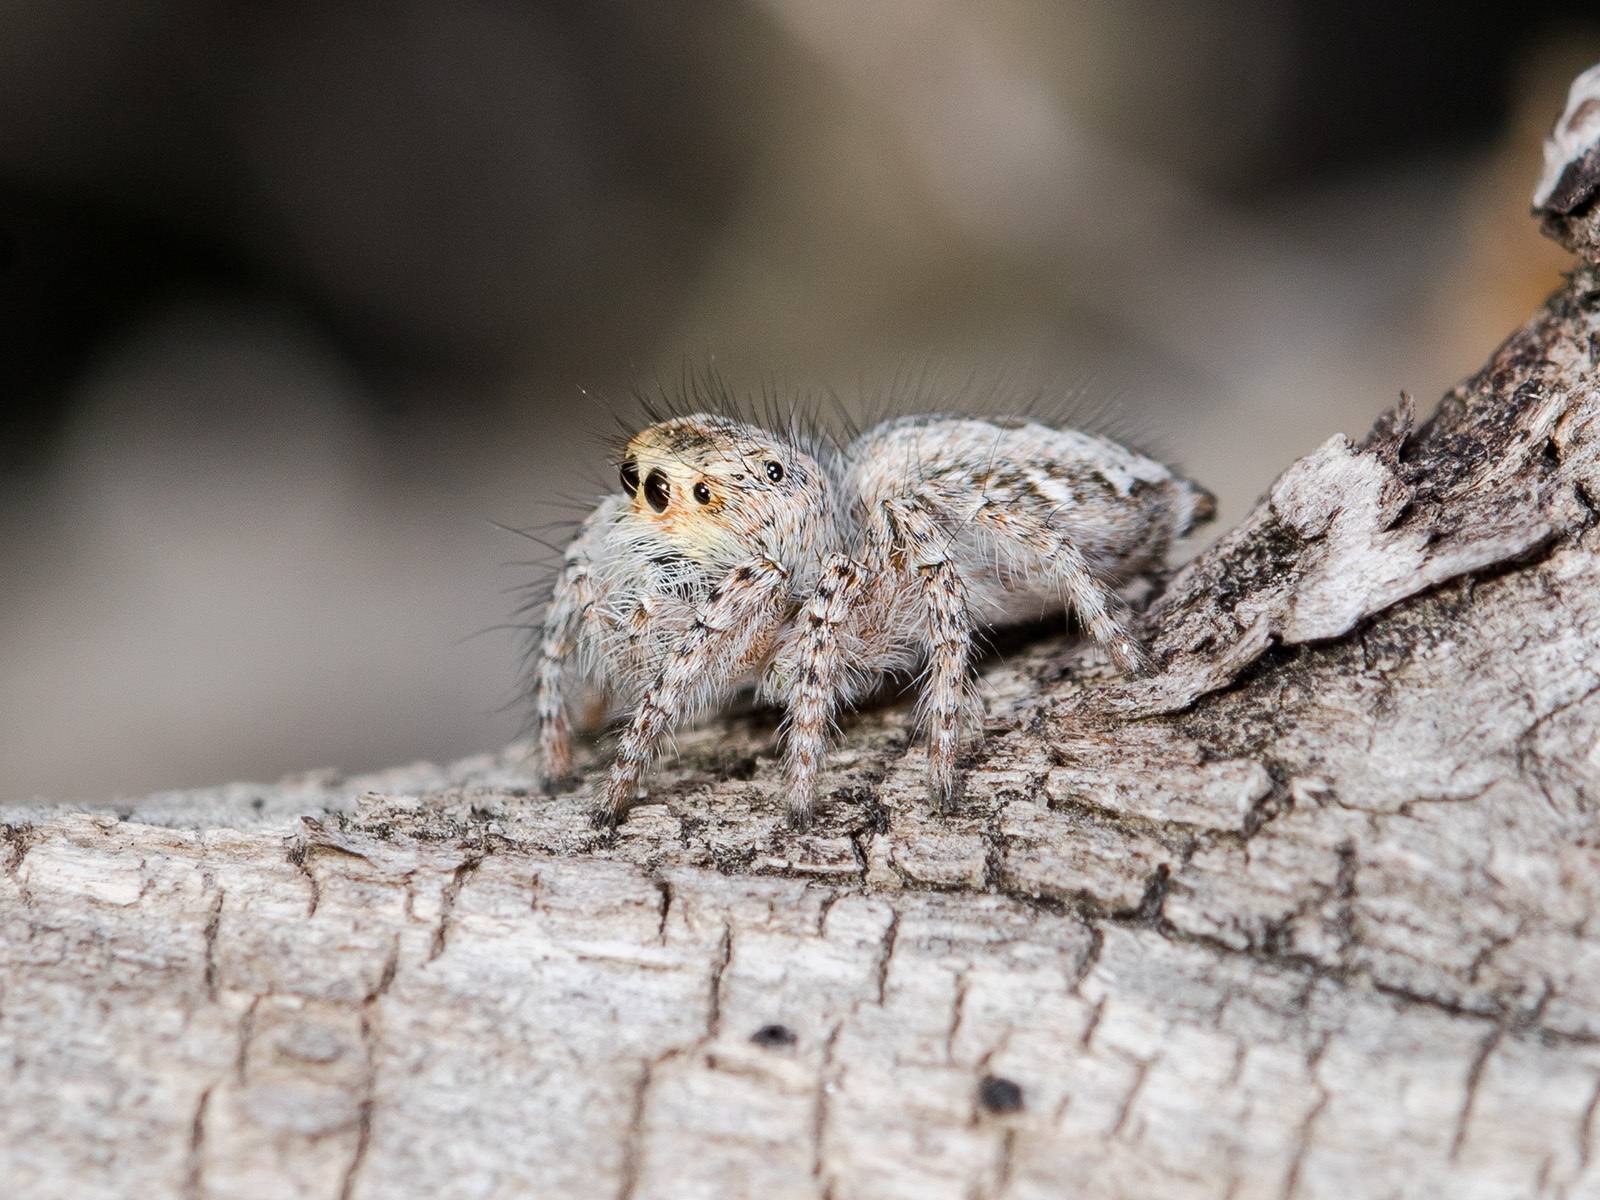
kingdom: Animalia
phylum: Arthropoda
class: Arachnida
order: Araneae
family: Salticidae
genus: Mogrus
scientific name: Mogrus larisae
